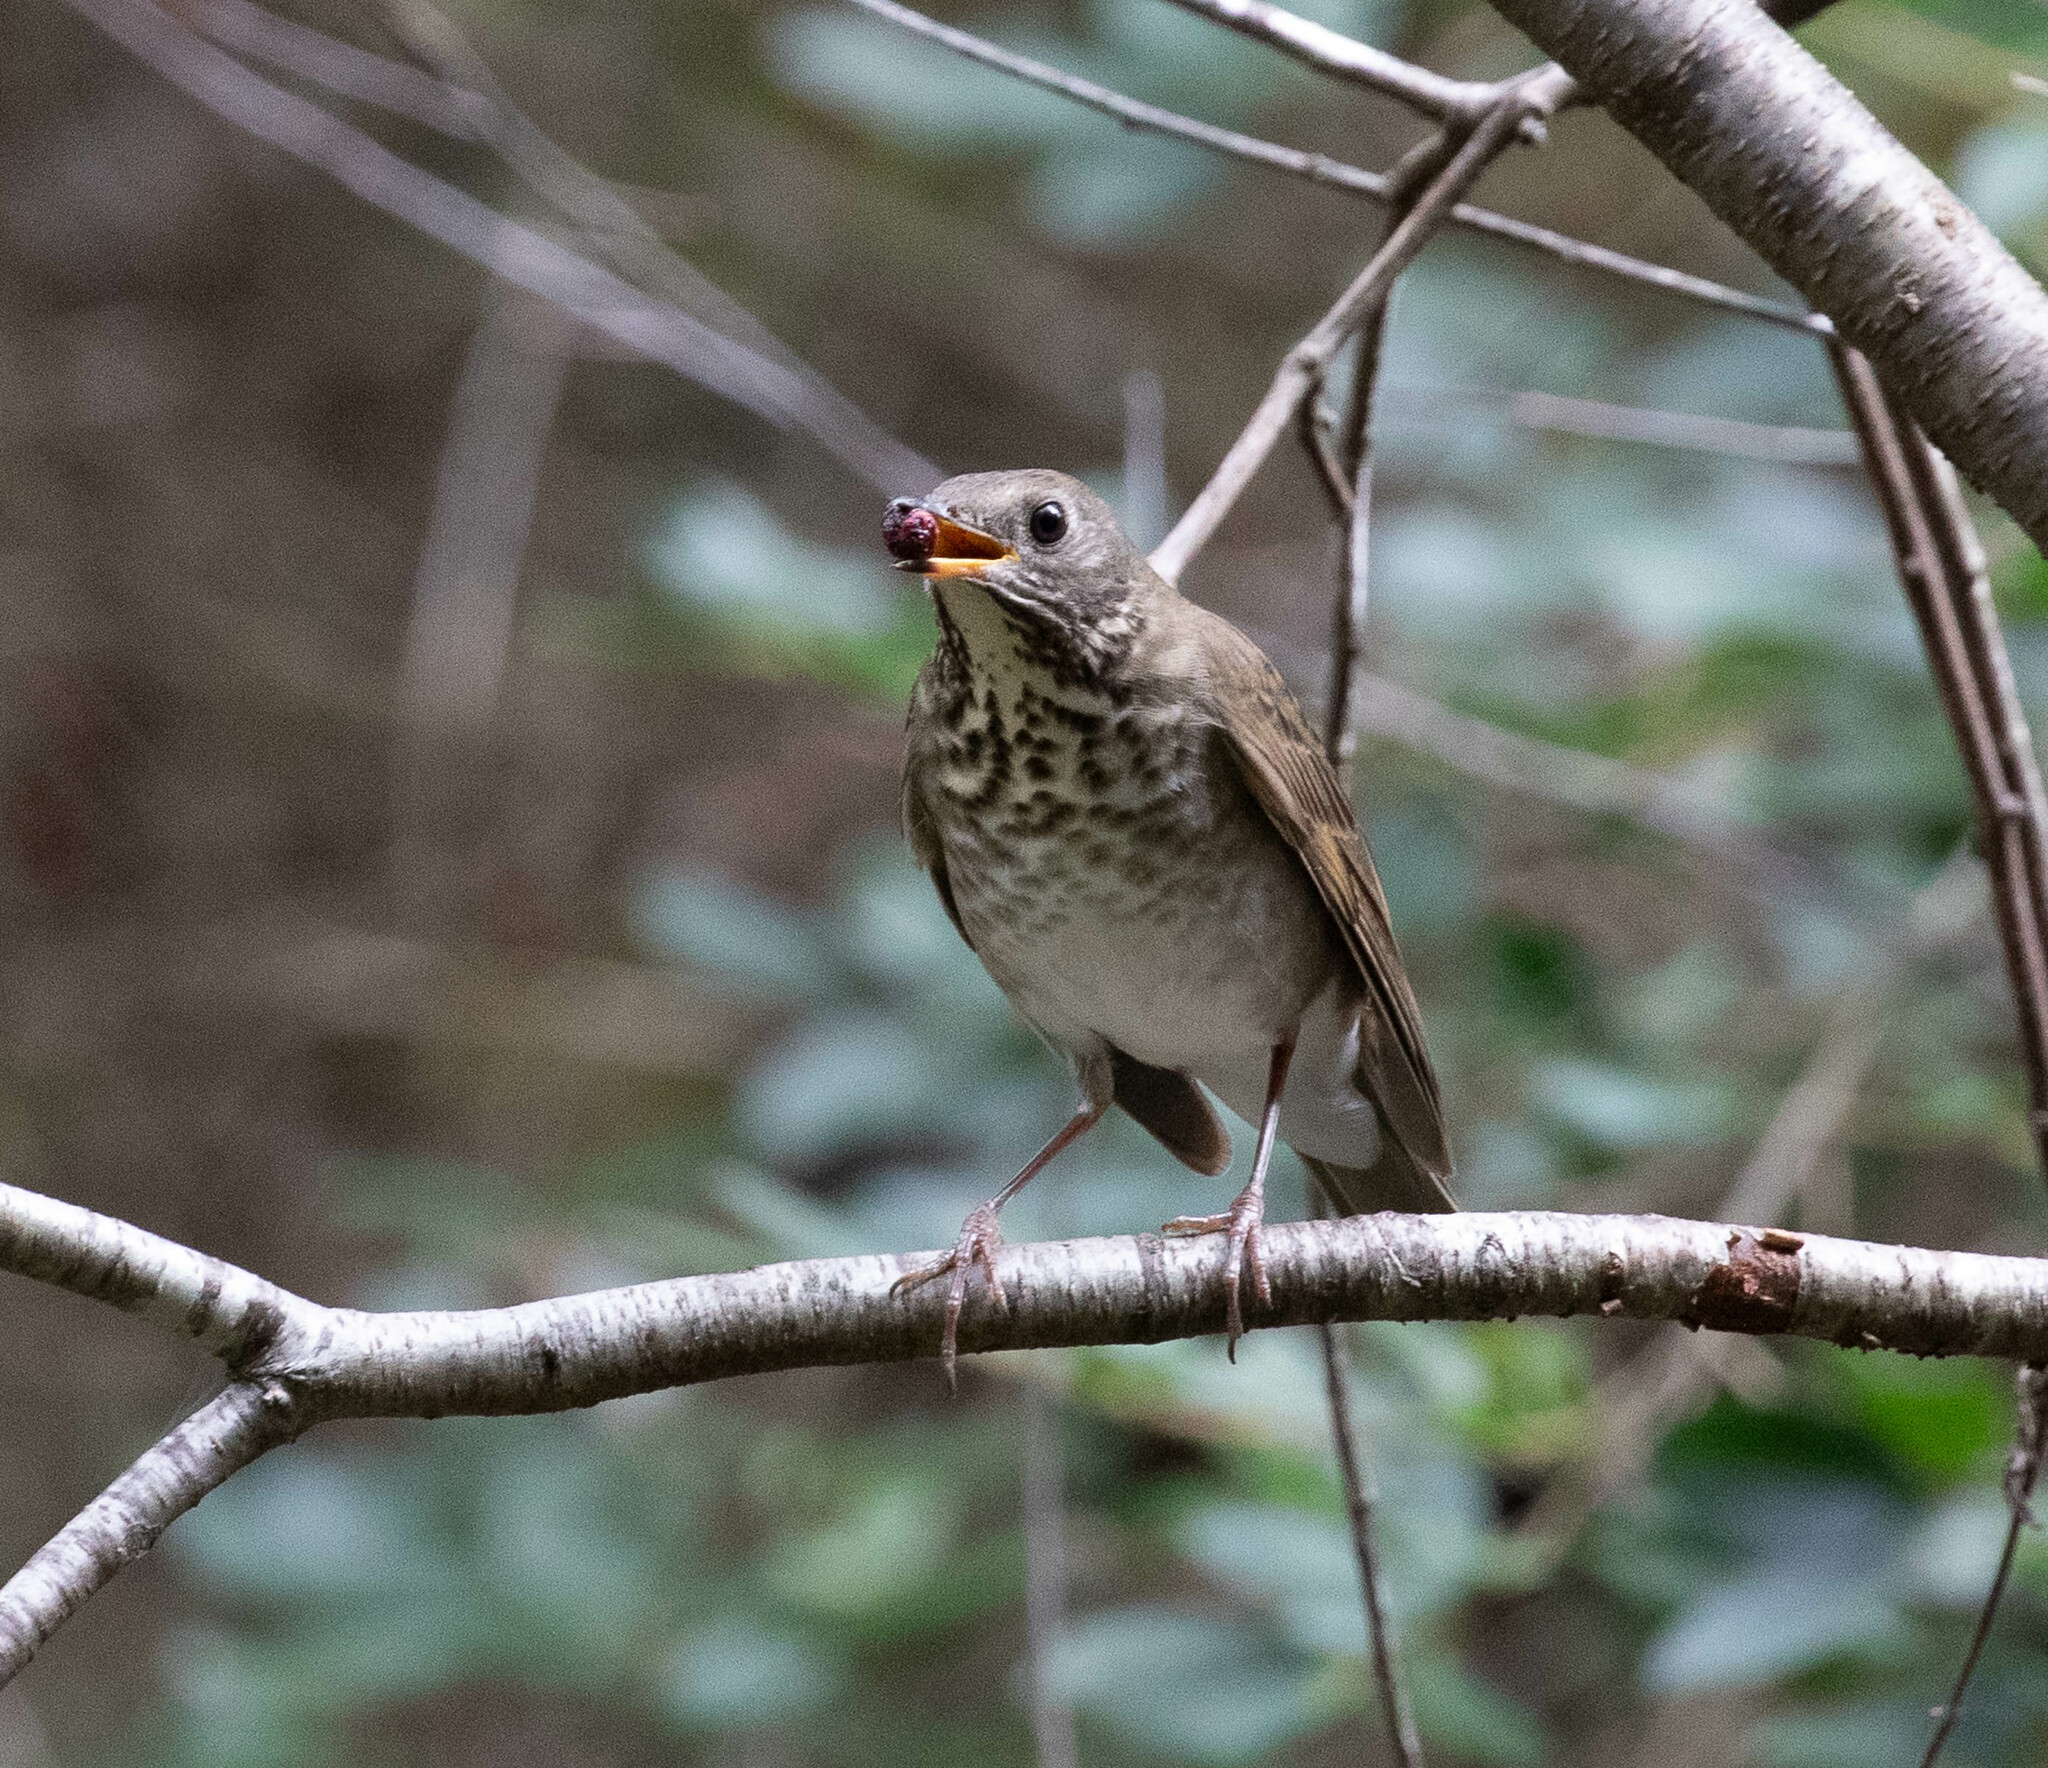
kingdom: Animalia
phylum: Chordata
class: Aves
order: Passeriformes
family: Turdidae
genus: Catharus
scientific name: Catharus minimus
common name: Grey-cheeked thrush
